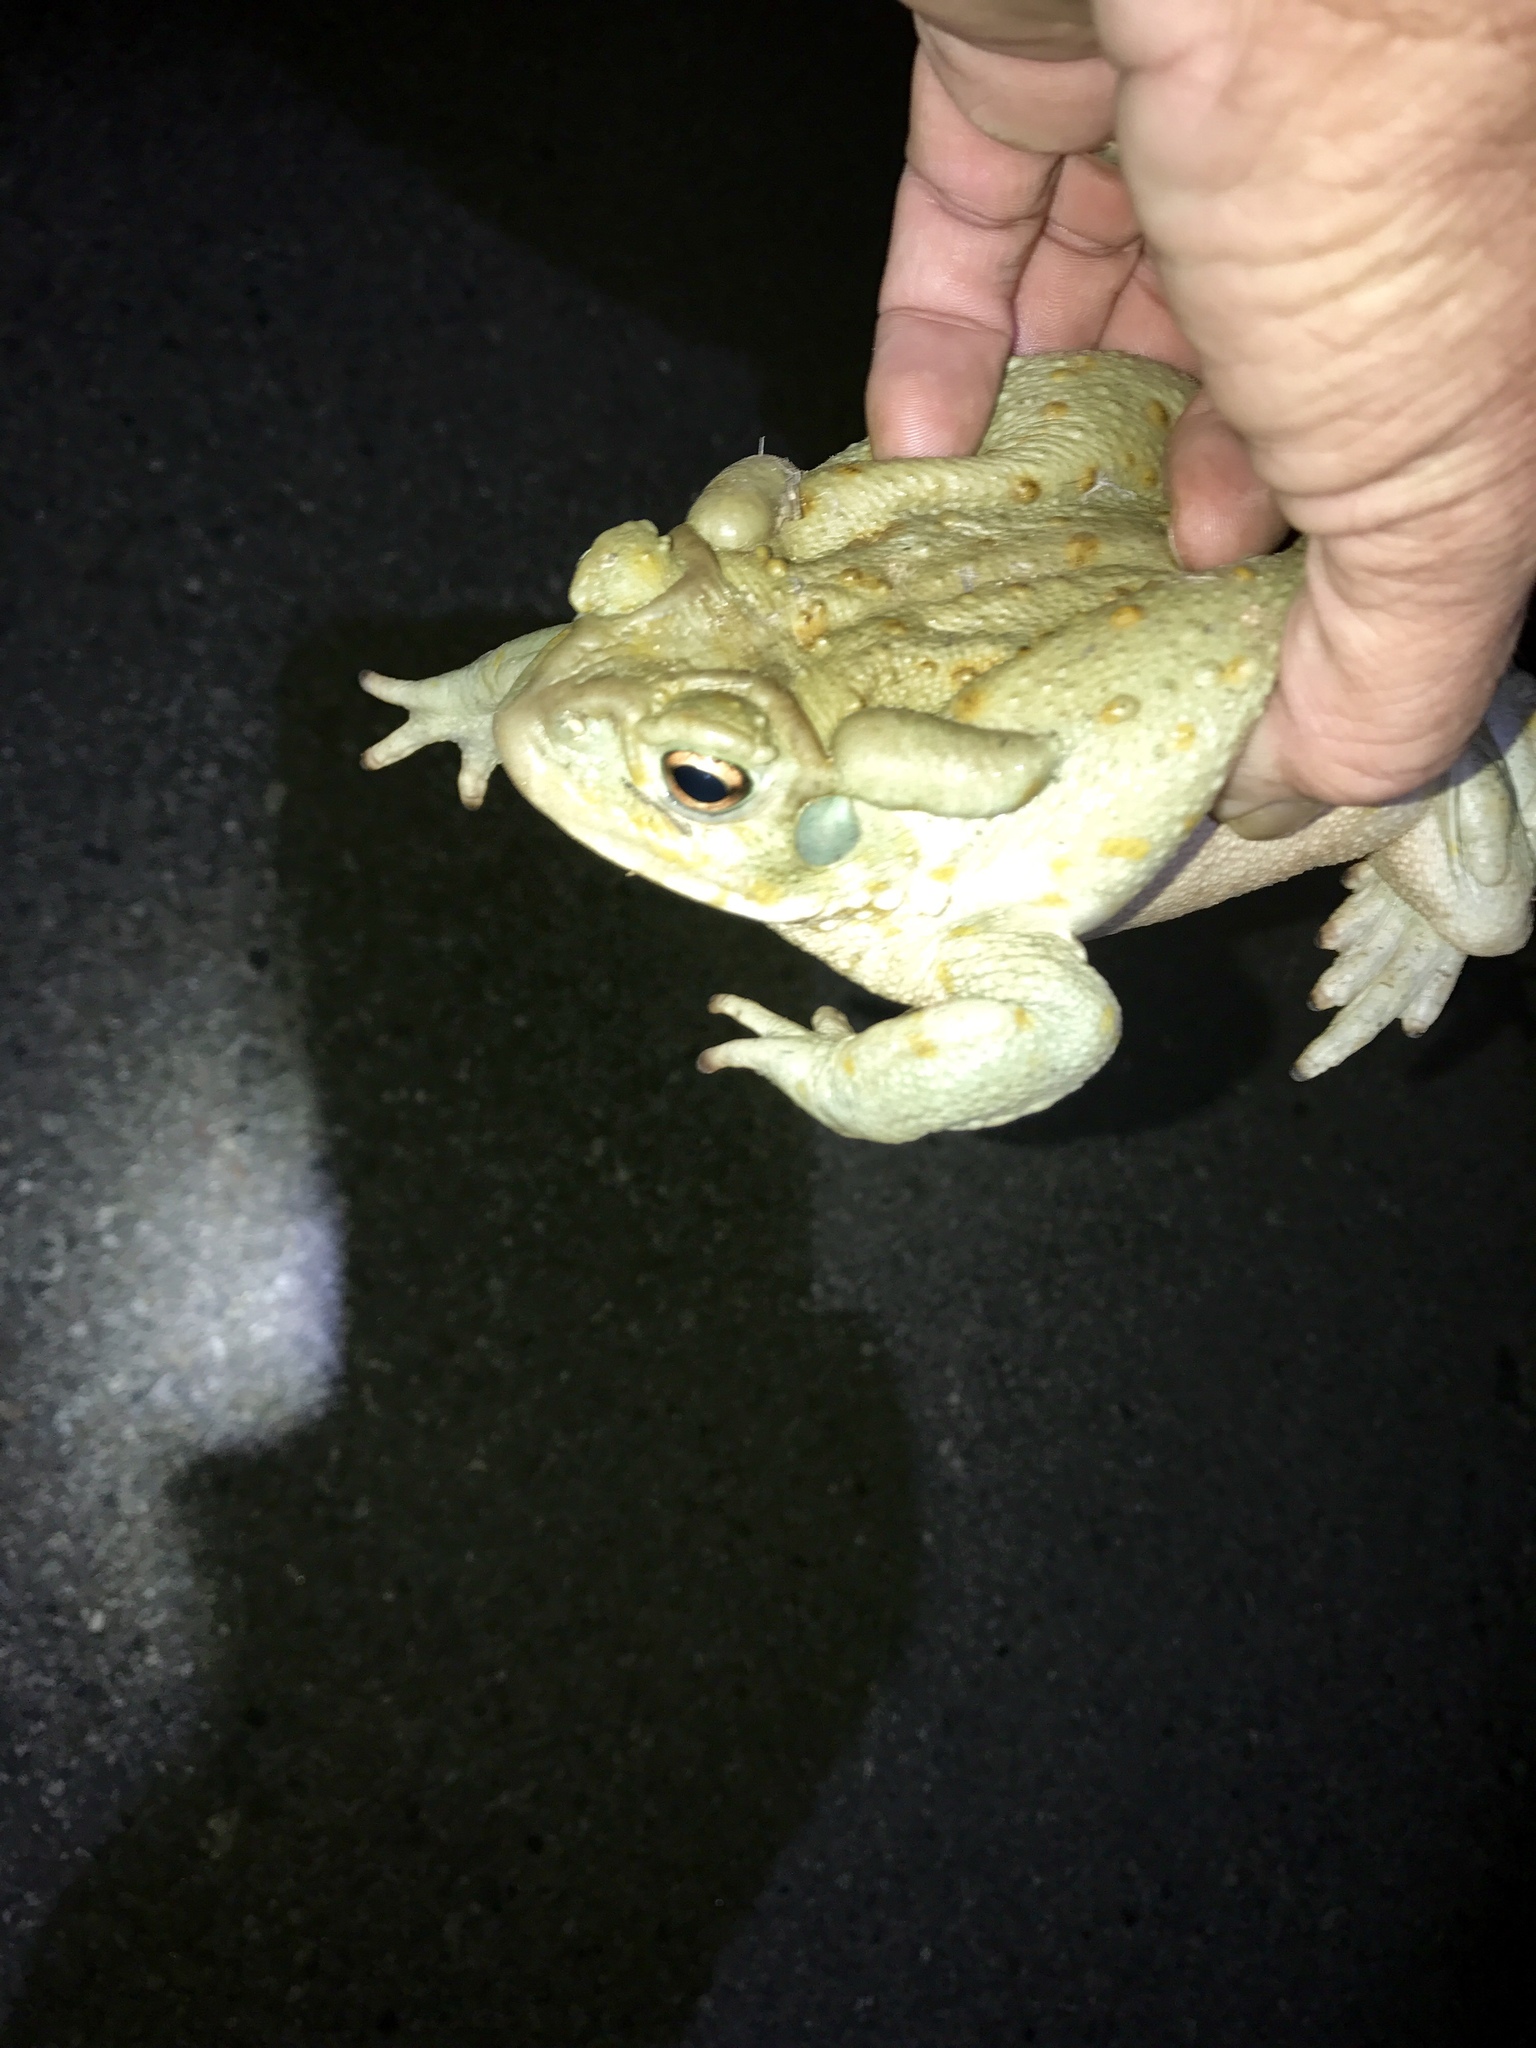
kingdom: Animalia
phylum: Chordata
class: Amphibia
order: Anura
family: Bufonidae
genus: Incilius
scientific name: Incilius alvarius
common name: Sonoran desert toad
